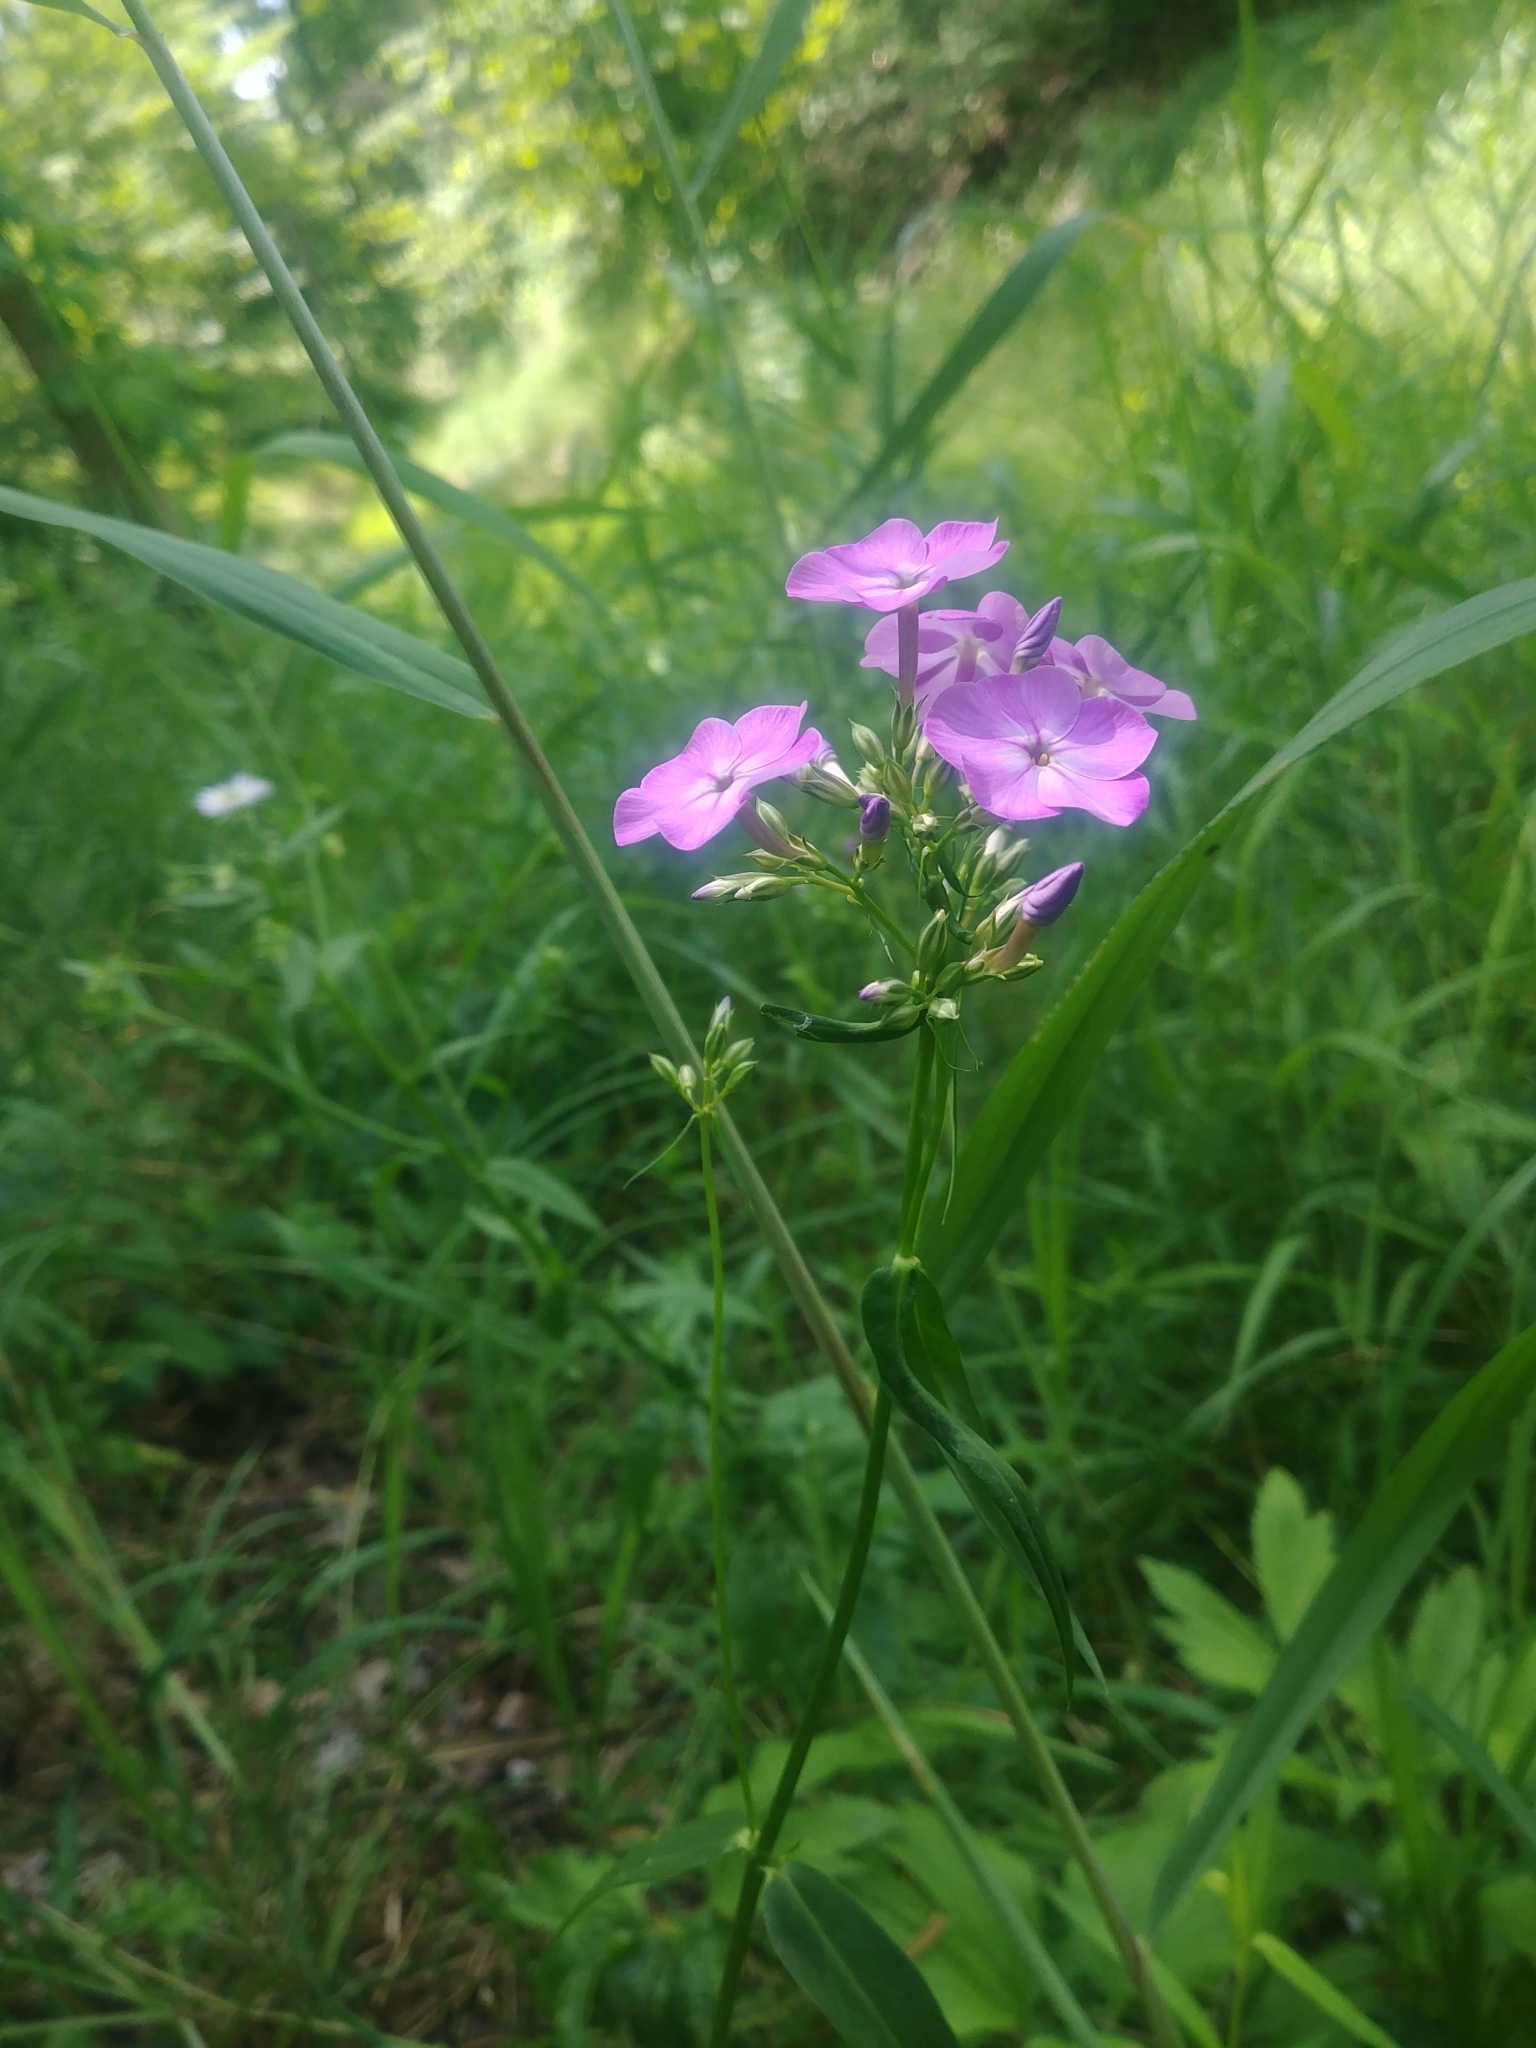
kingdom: Plantae
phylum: Tracheophyta
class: Magnoliopsida
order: Ericales
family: Polemoniaceae
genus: Phlox
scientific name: Phlox glaberrima
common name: Smooth phlox
